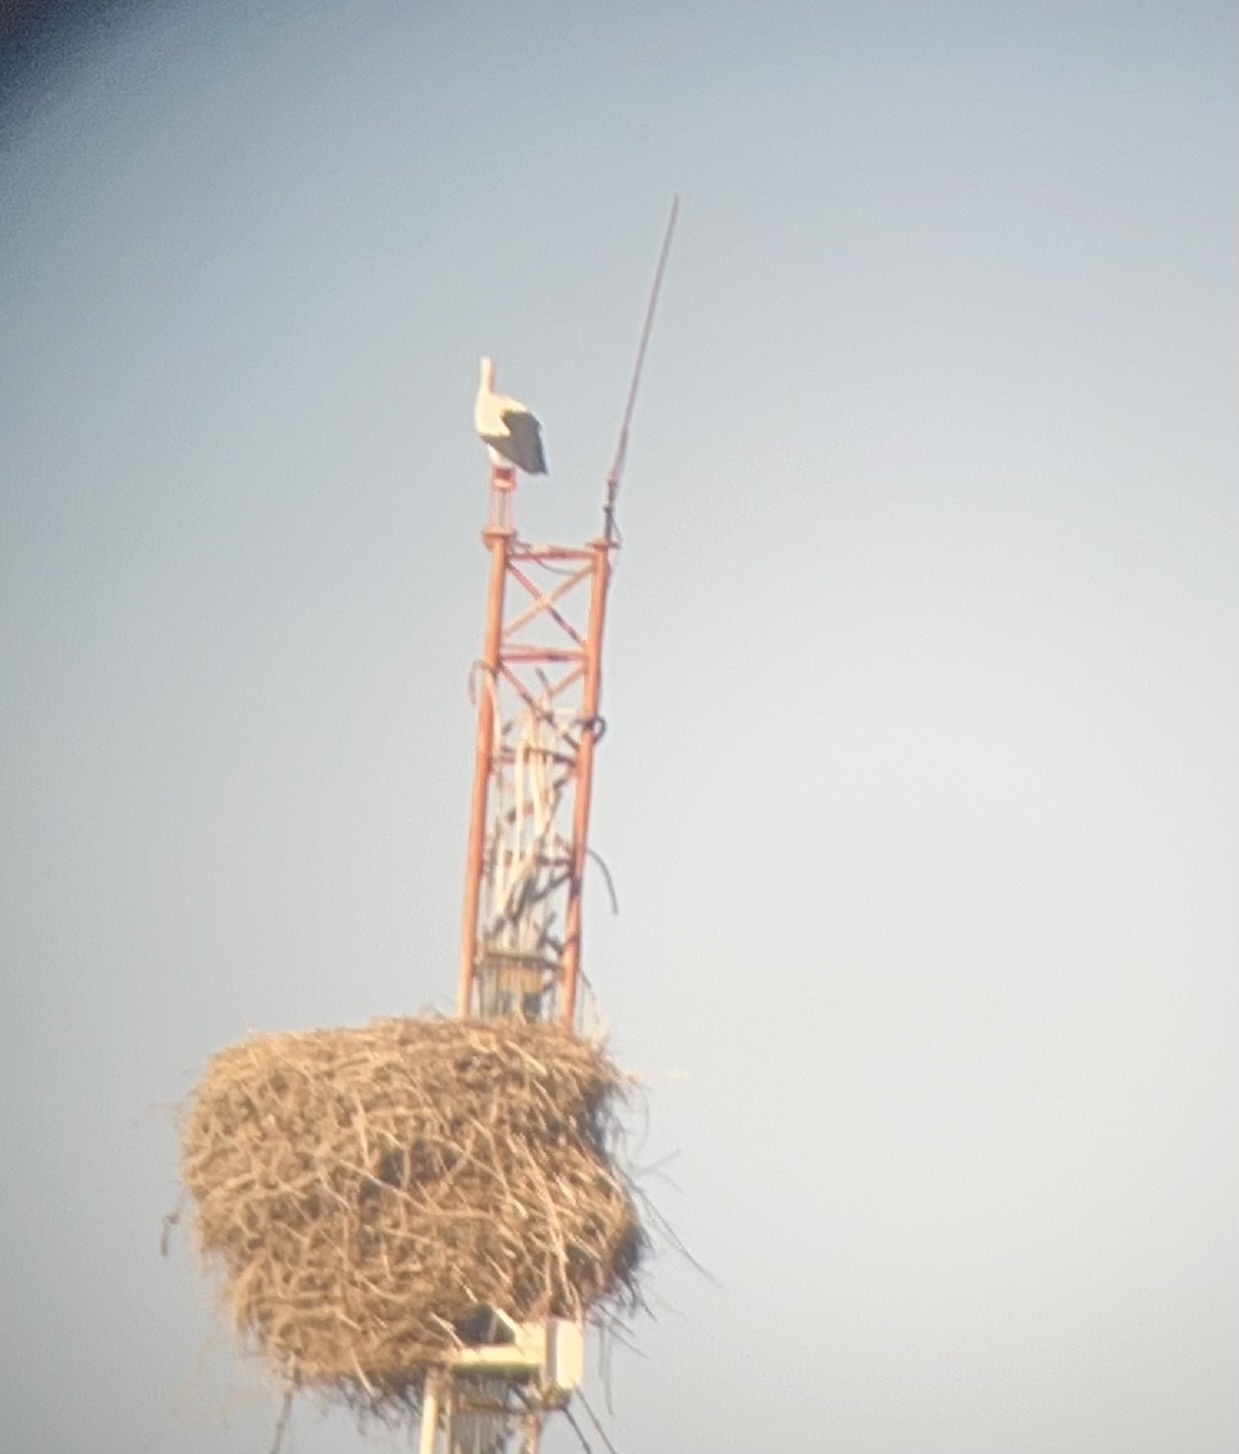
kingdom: Animalia
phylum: Chordata
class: Aves
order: Ciconiiformes
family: Ciconiidae
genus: Ciconia
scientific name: Ciconia ciconia
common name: White stork
